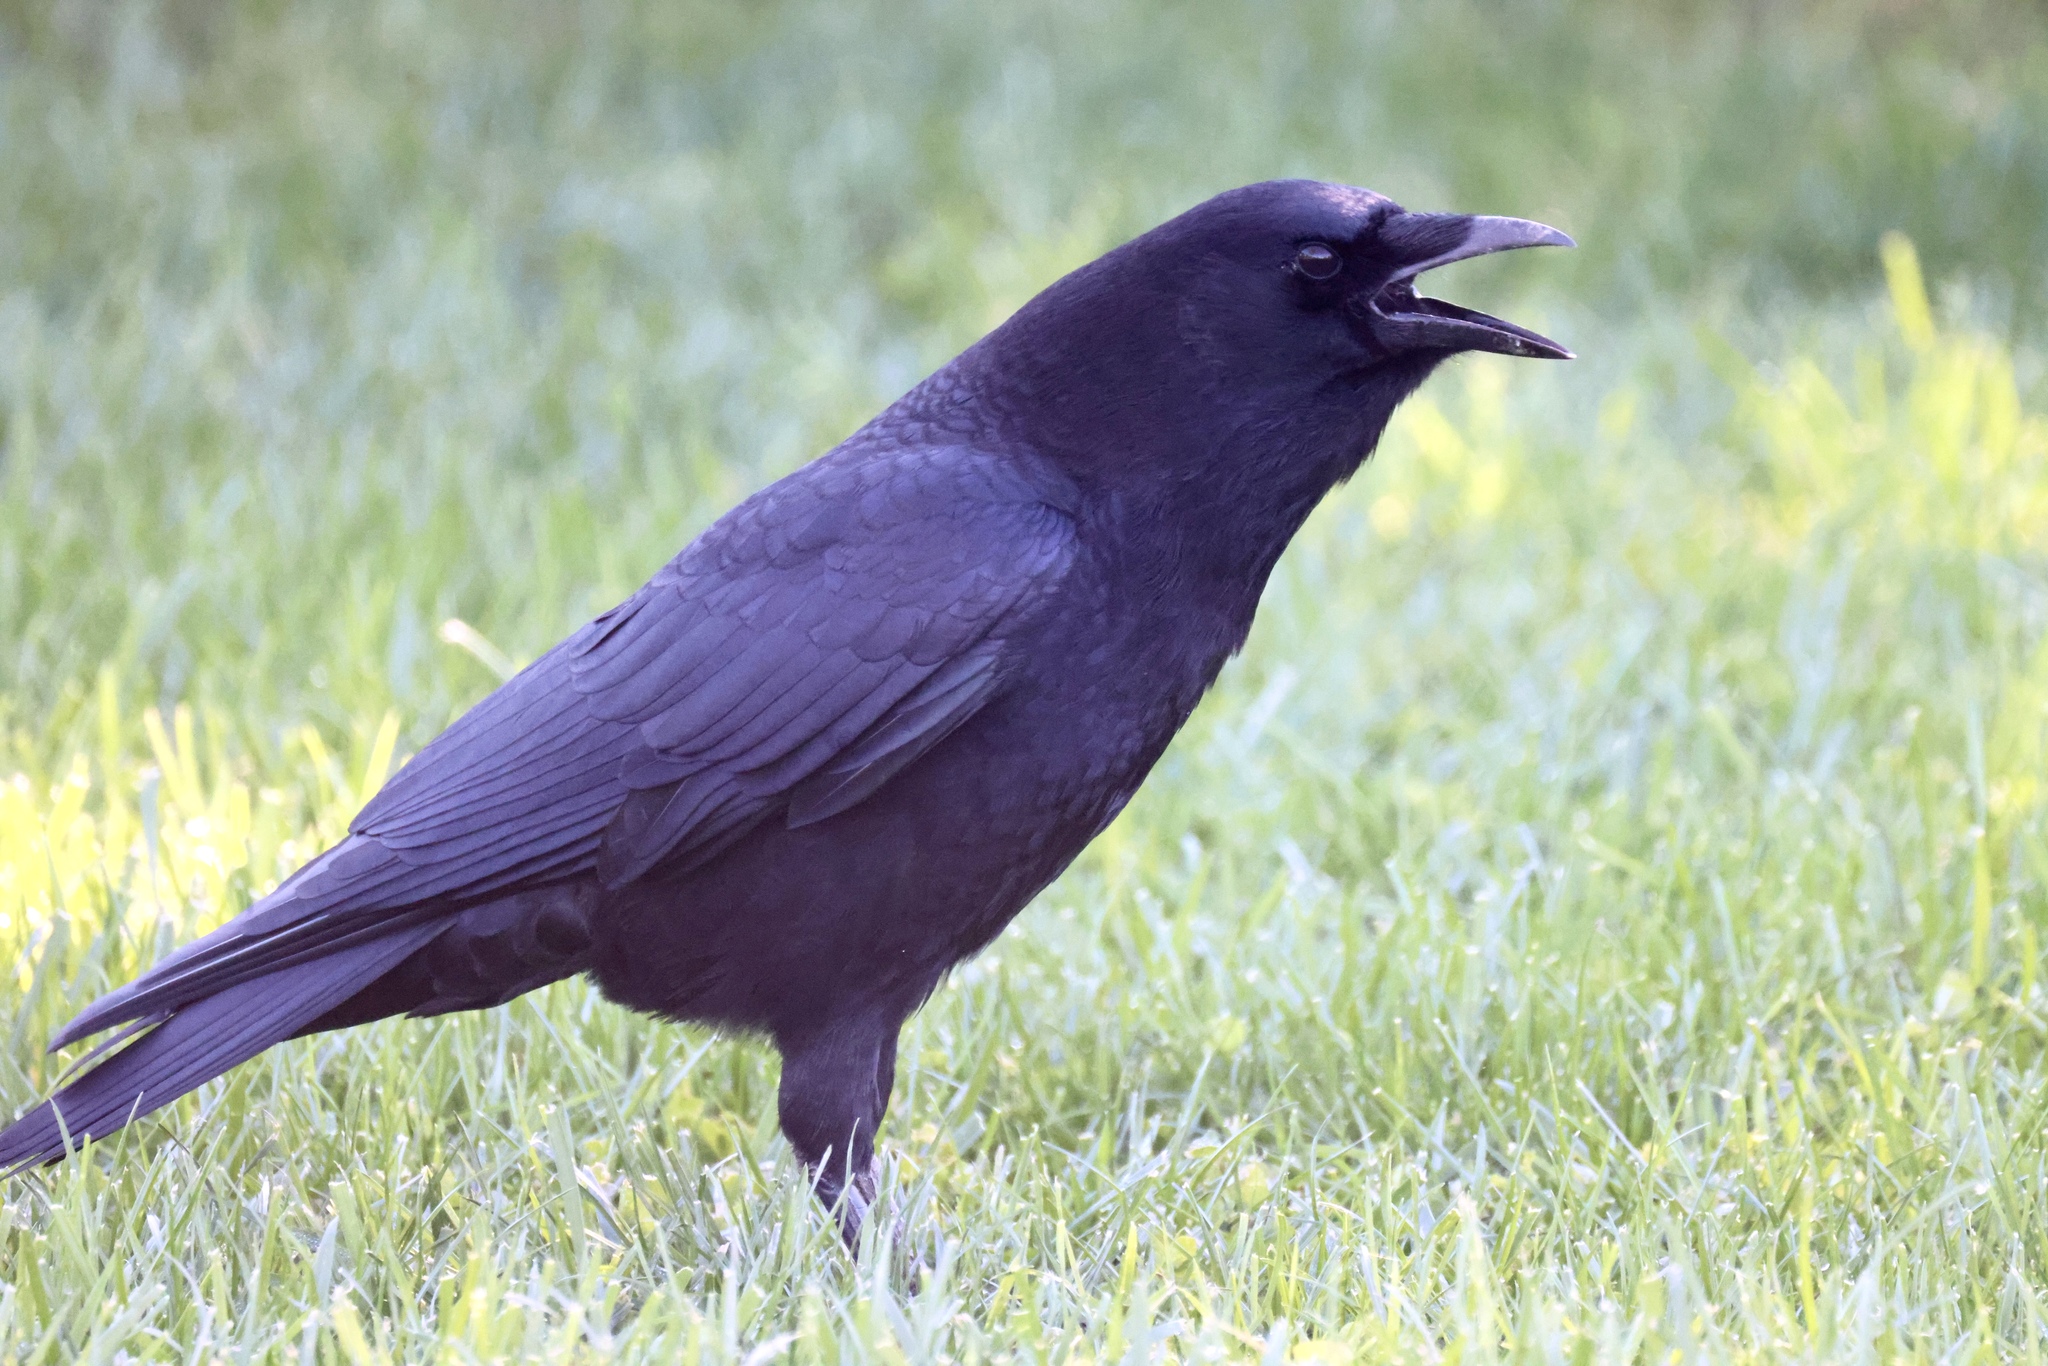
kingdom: Animalia
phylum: Chordata
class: Aves
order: Passeriformes
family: Corvidae
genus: Corvus
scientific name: Corvus brachyrhynchos
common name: American crow
